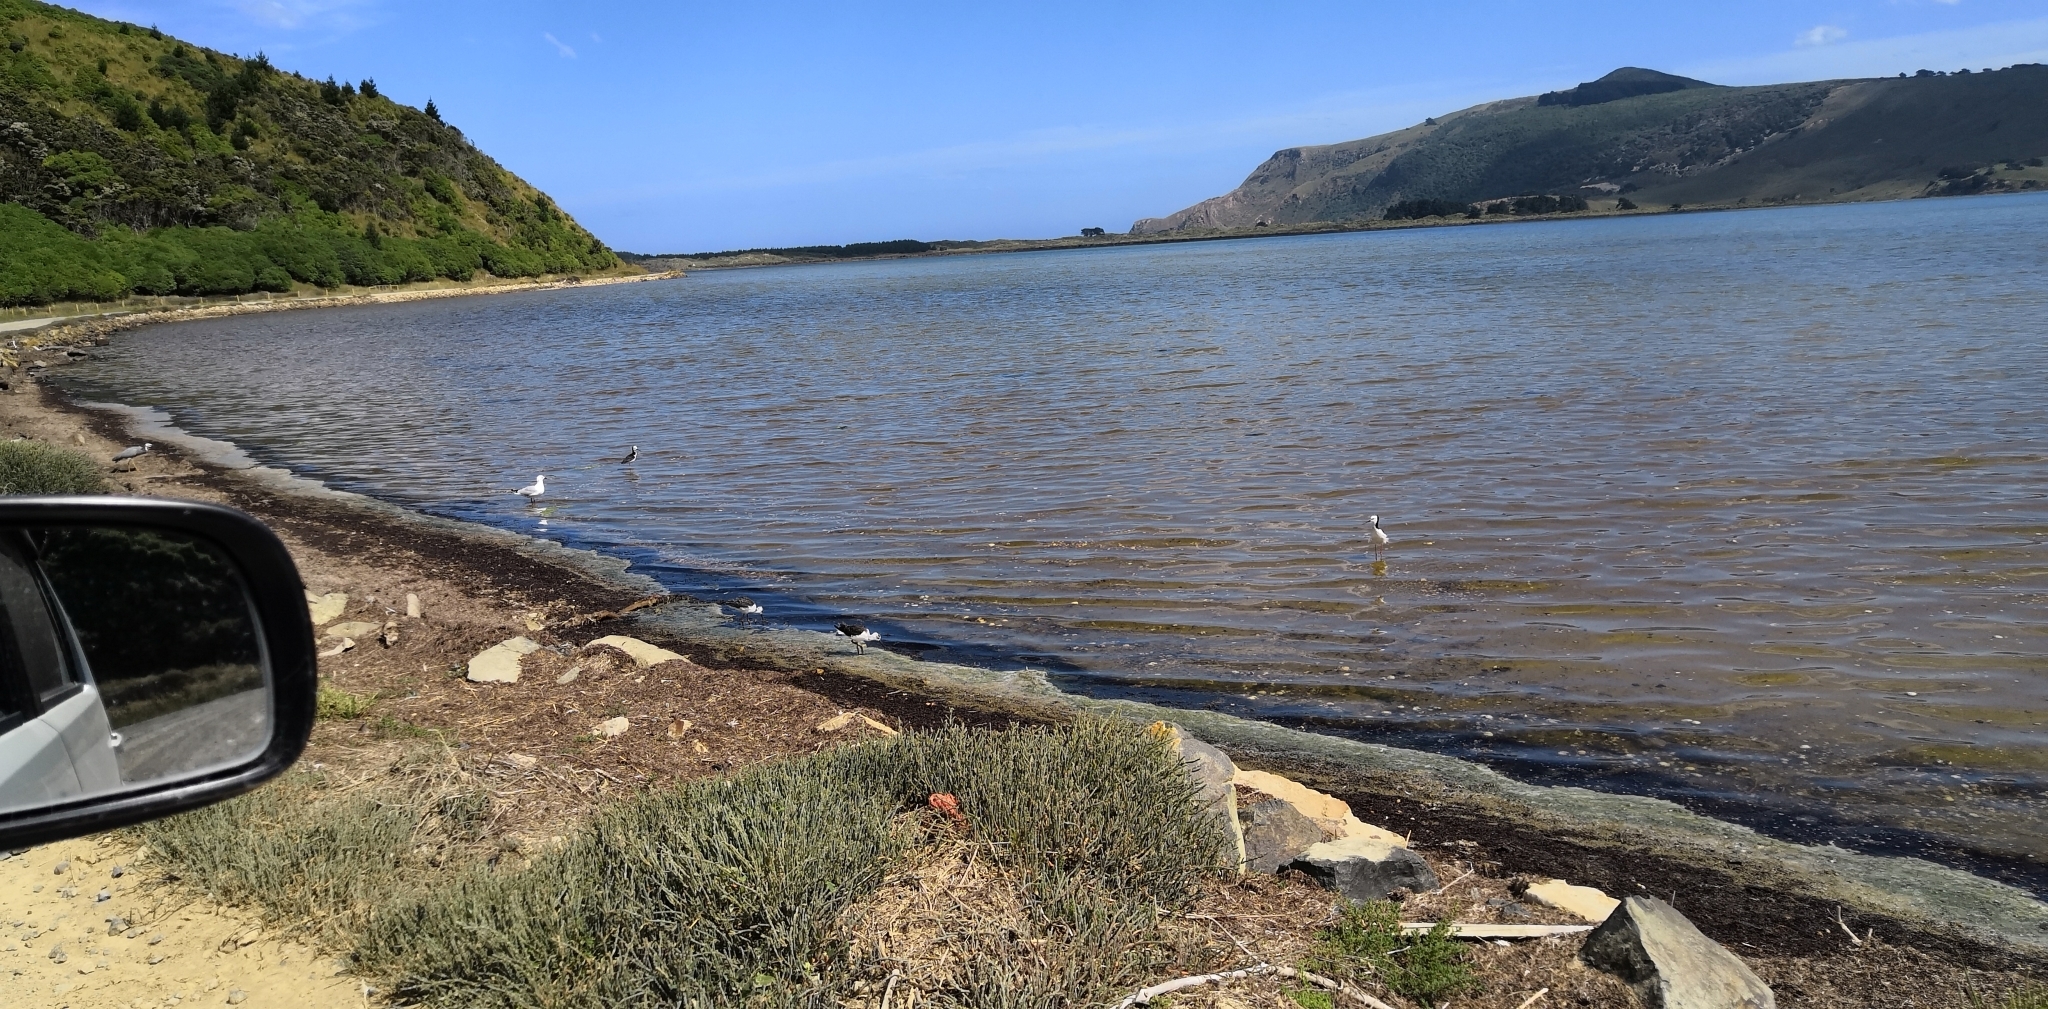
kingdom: Animalia
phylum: Chordata
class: Aves
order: Charadriiformes
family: Recurvirostridae
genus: Himantopus
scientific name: Himantopus leucocephalus
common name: White-headed stilt
